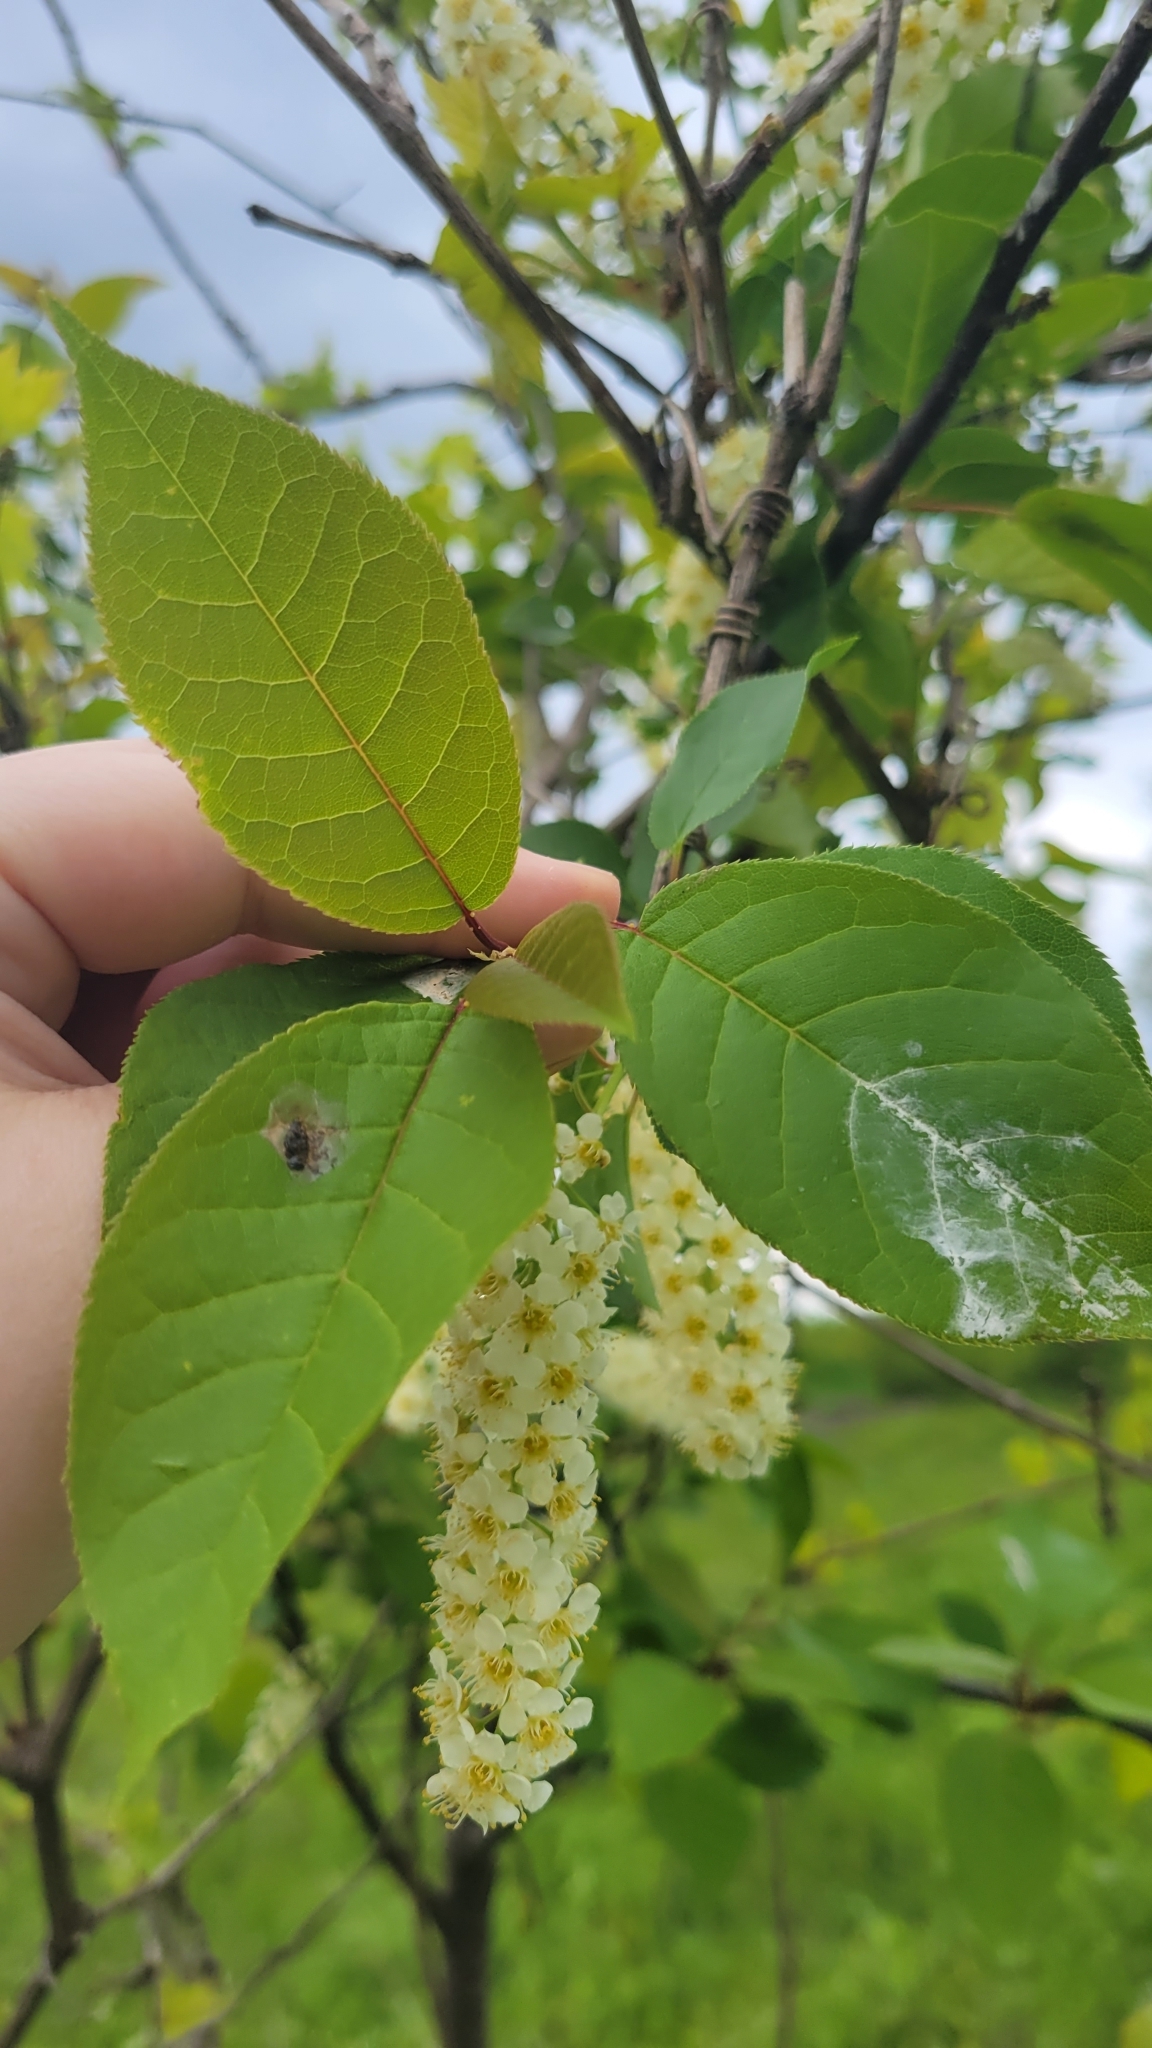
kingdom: Plantae
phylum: Tracheophyta
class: Magnoliopsida
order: Rosales
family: Rosaceae
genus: Prunus
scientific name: Prunus virginiana
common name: Chokecherry
